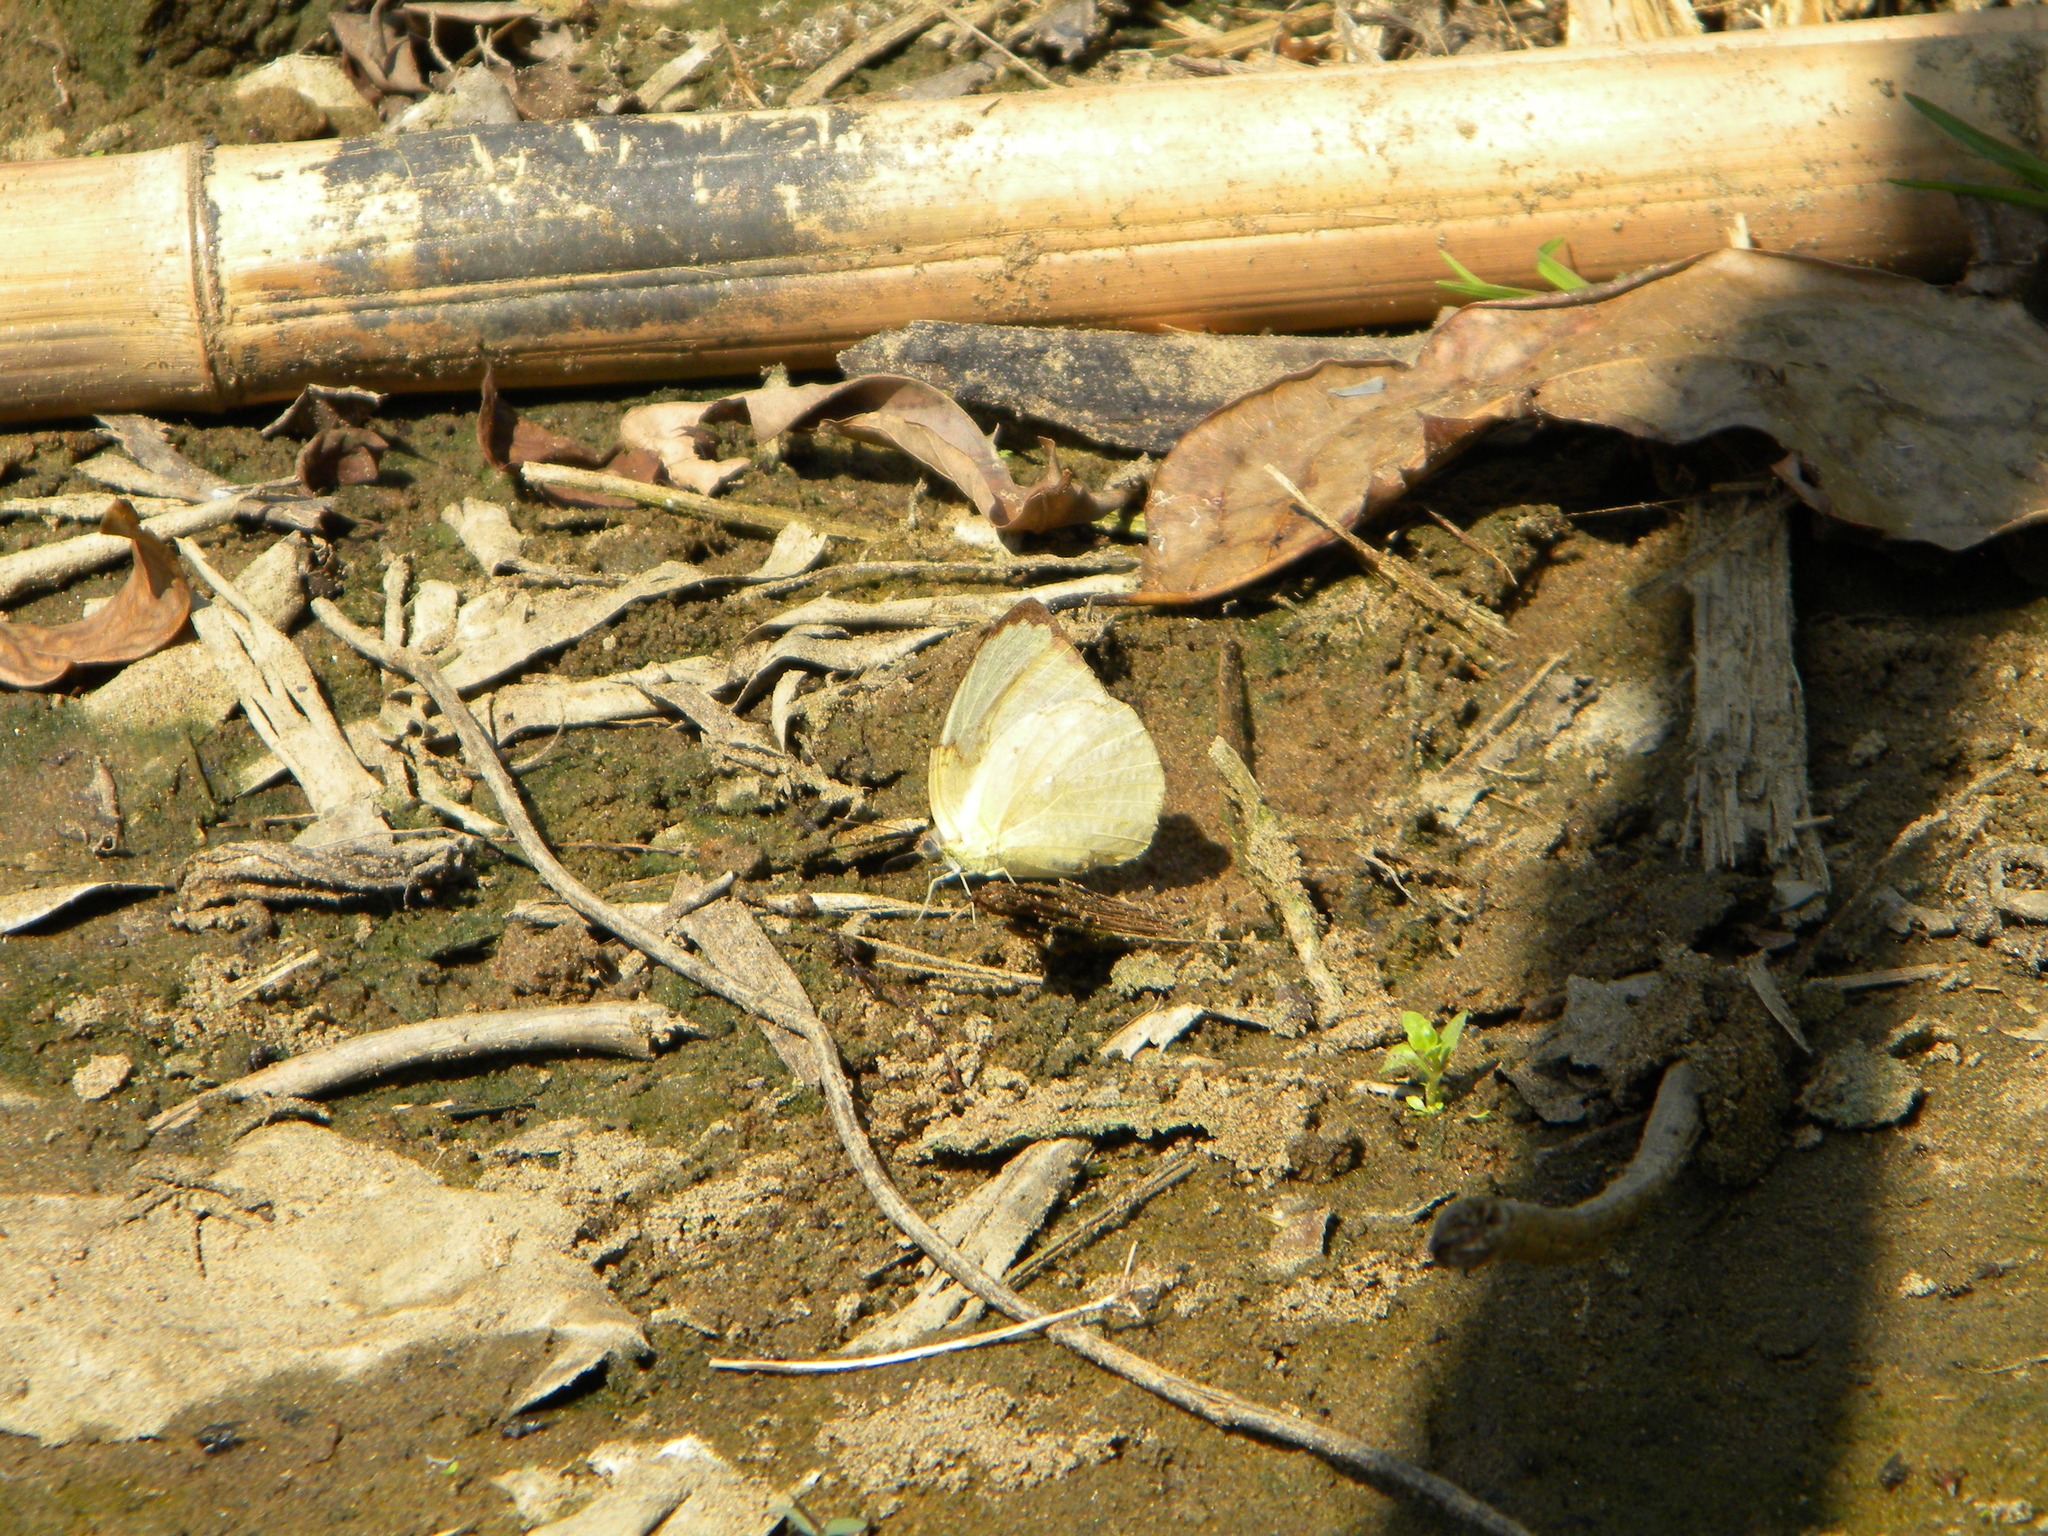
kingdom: Animalia
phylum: Arthropoda
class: Insecta
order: Lepidoptera
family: Pieridae
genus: Catopsilia
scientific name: Catopsilia pyranthe
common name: Mottled emigrant
